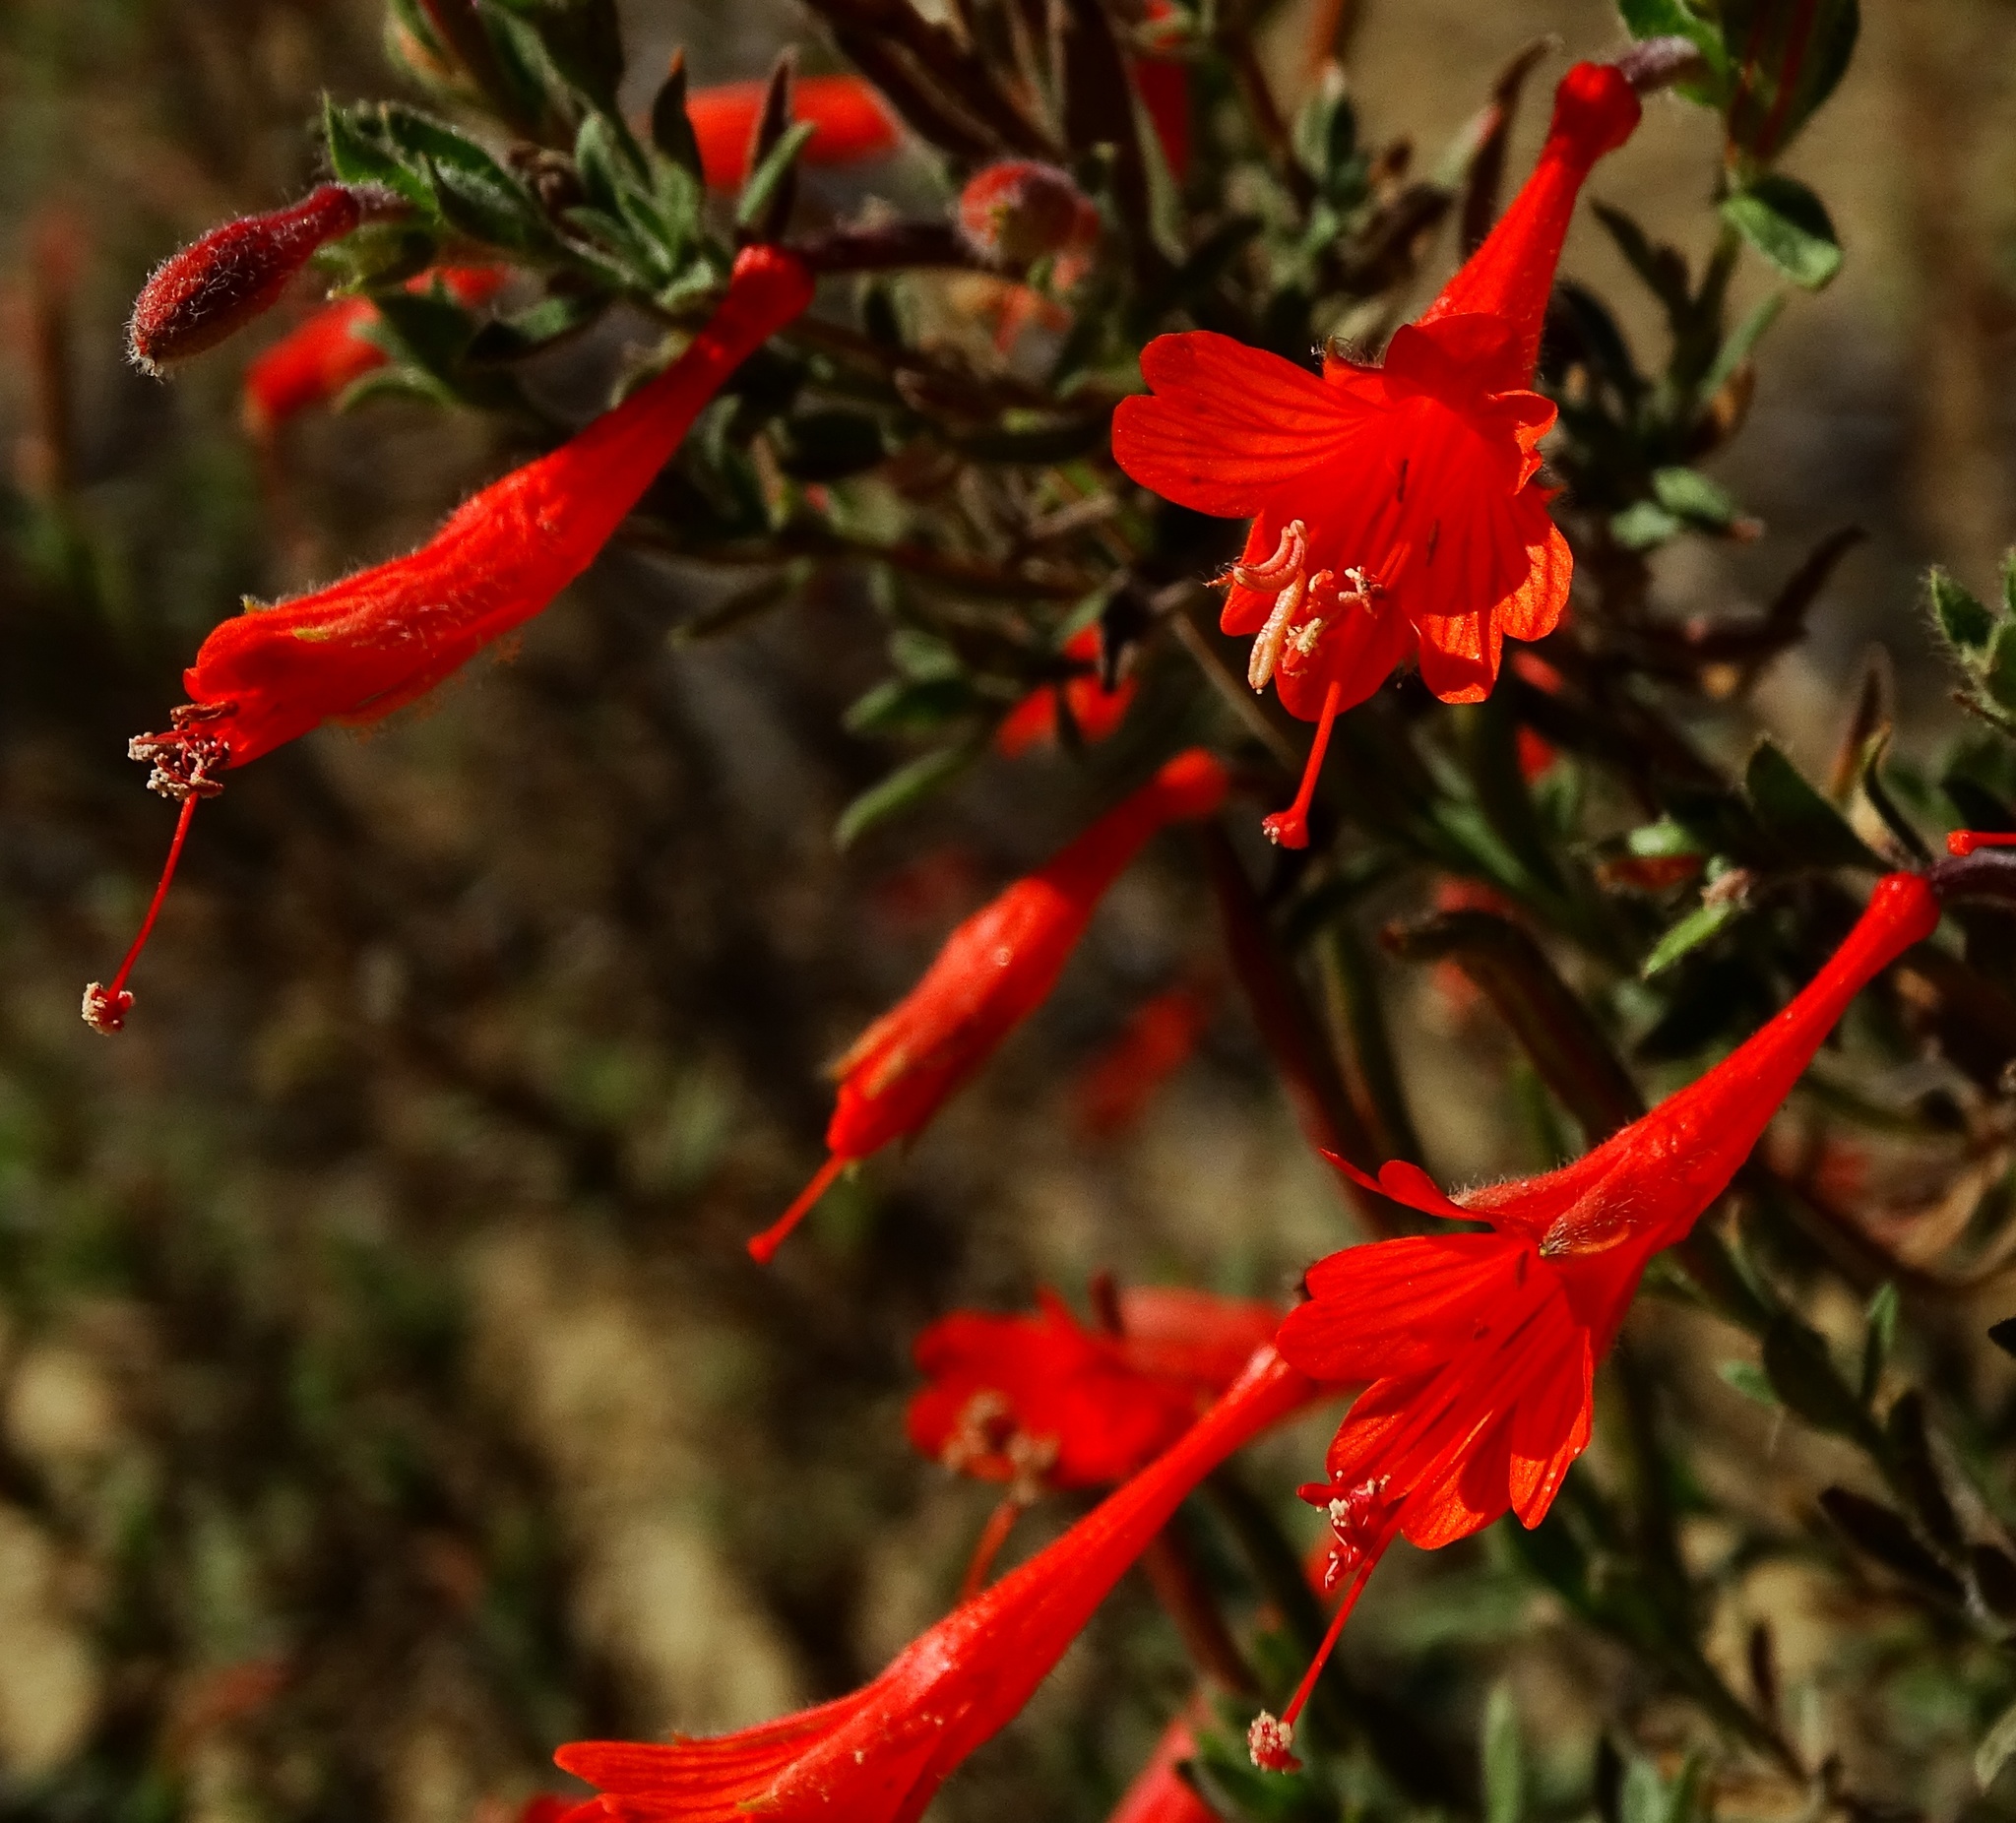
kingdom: Plantae
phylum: Tracheophyta
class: Magnoliopsida
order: Myrtales
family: Onagraceae
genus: Epilobium
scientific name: Epilobium canum
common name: California-fuchsia
